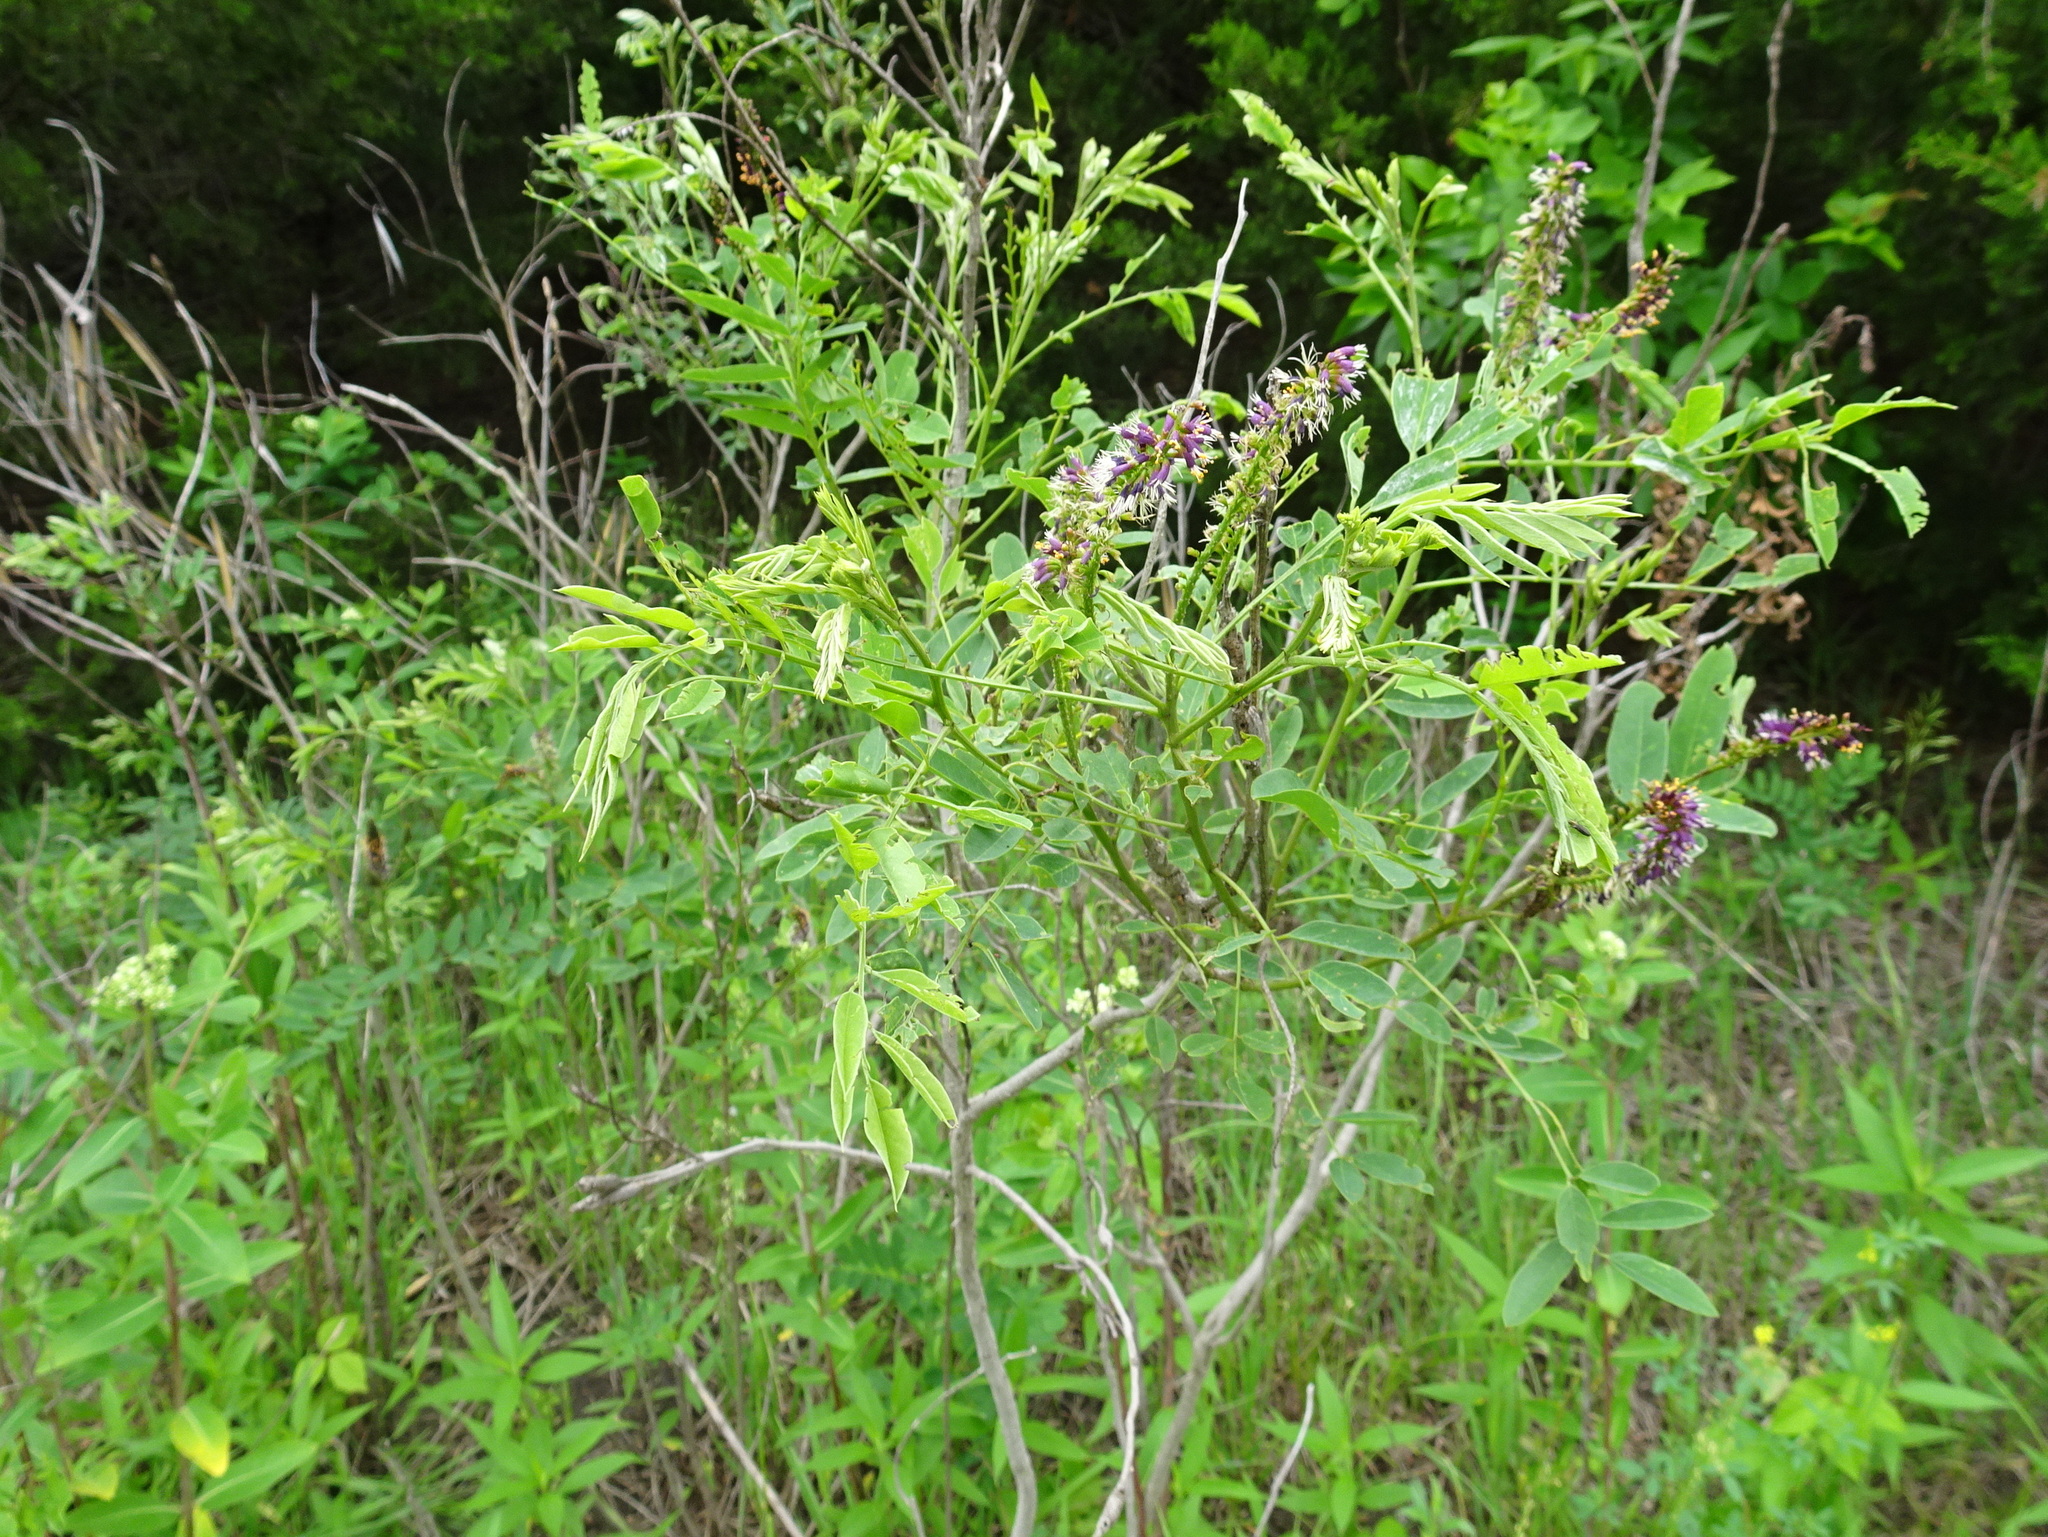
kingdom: Plantae
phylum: Tracheophyta
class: Magnoliopsida
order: Fabales
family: Fabaceae
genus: Amorpha
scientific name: Amorpha fruticosa
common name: False indigo
